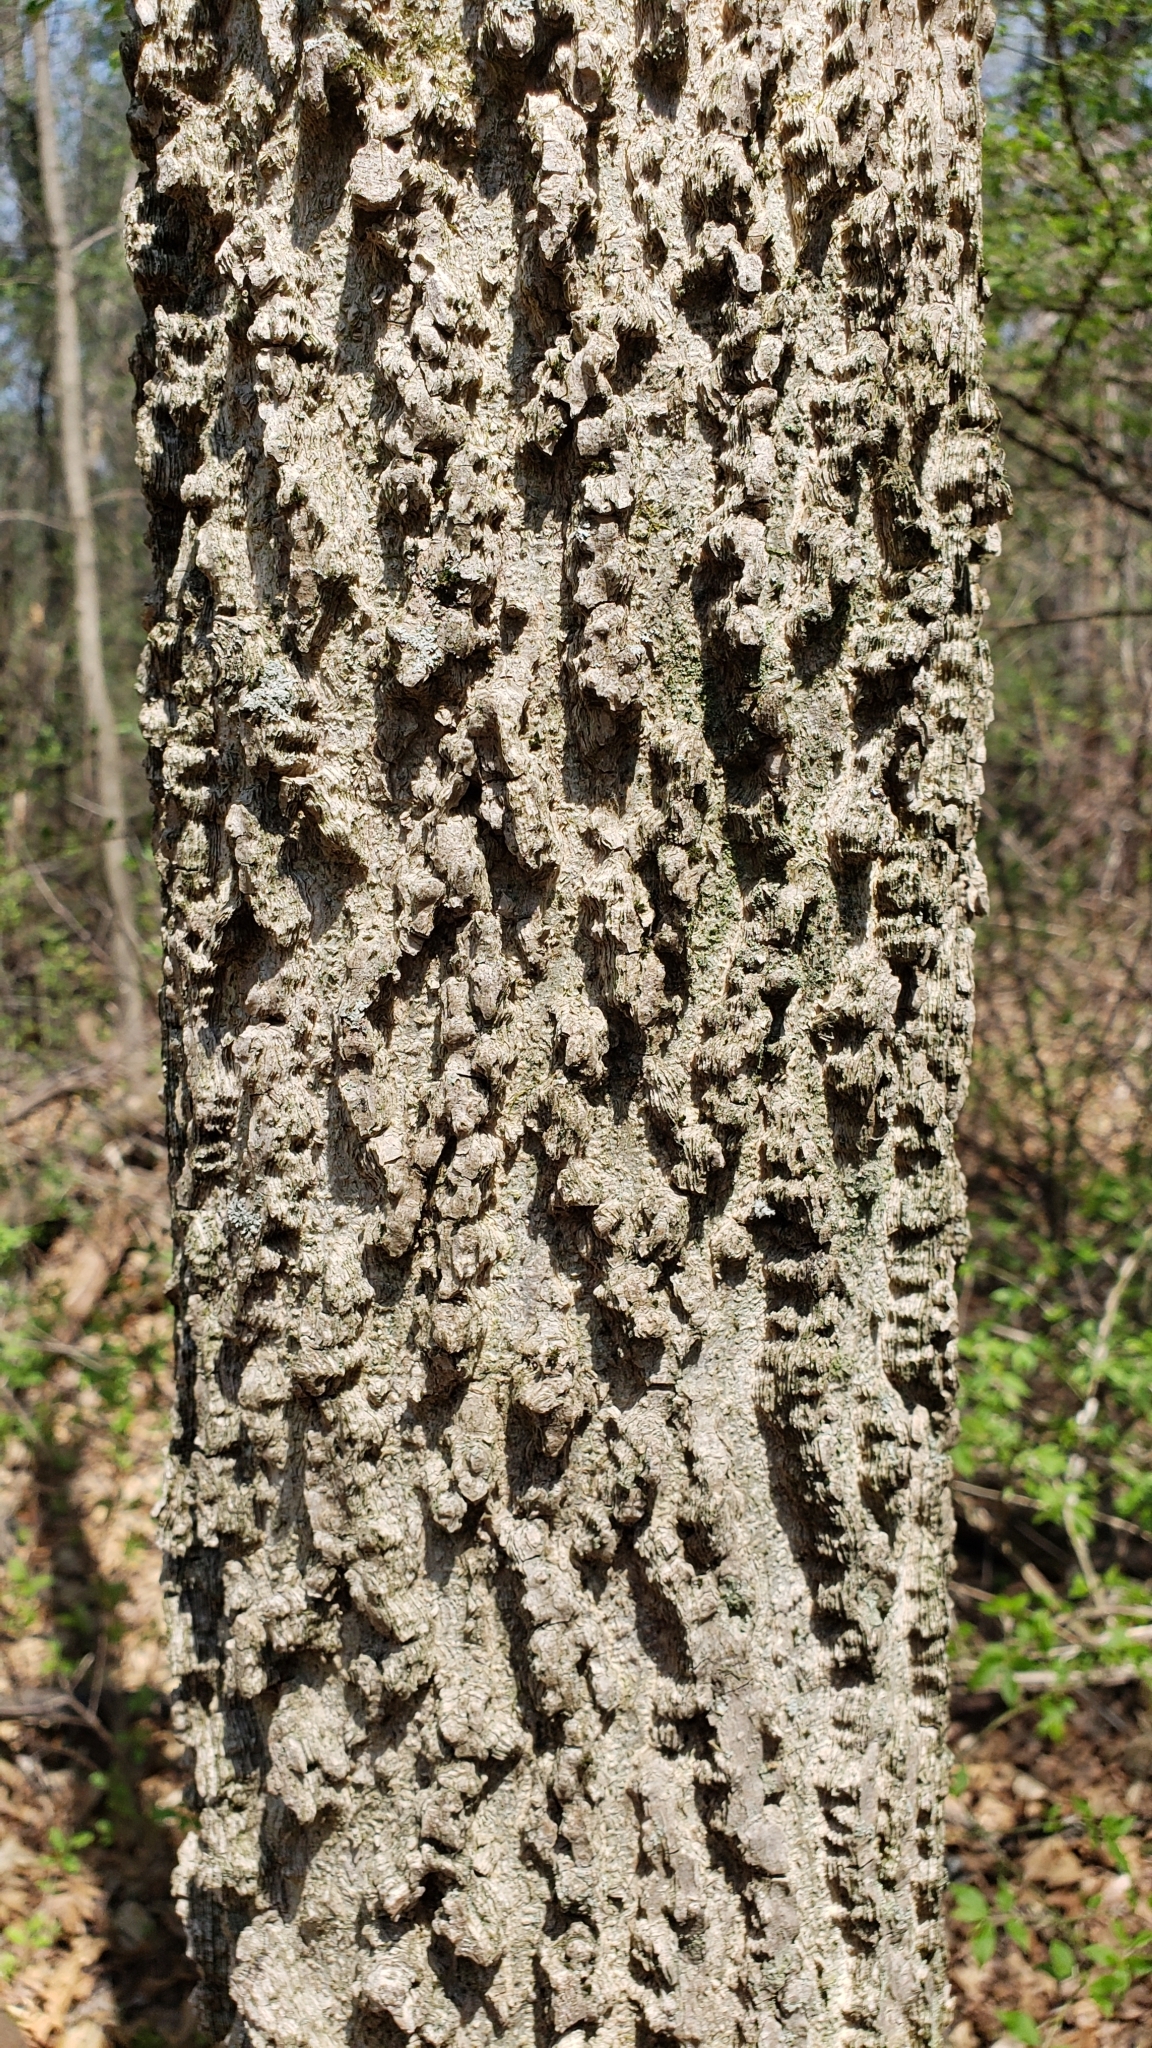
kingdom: Plantae
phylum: Tracheophyta
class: Magnoliopsida
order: Rosales
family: Cannabaceae
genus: Celtis
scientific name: Celtis occidentalis
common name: Common hackberry
